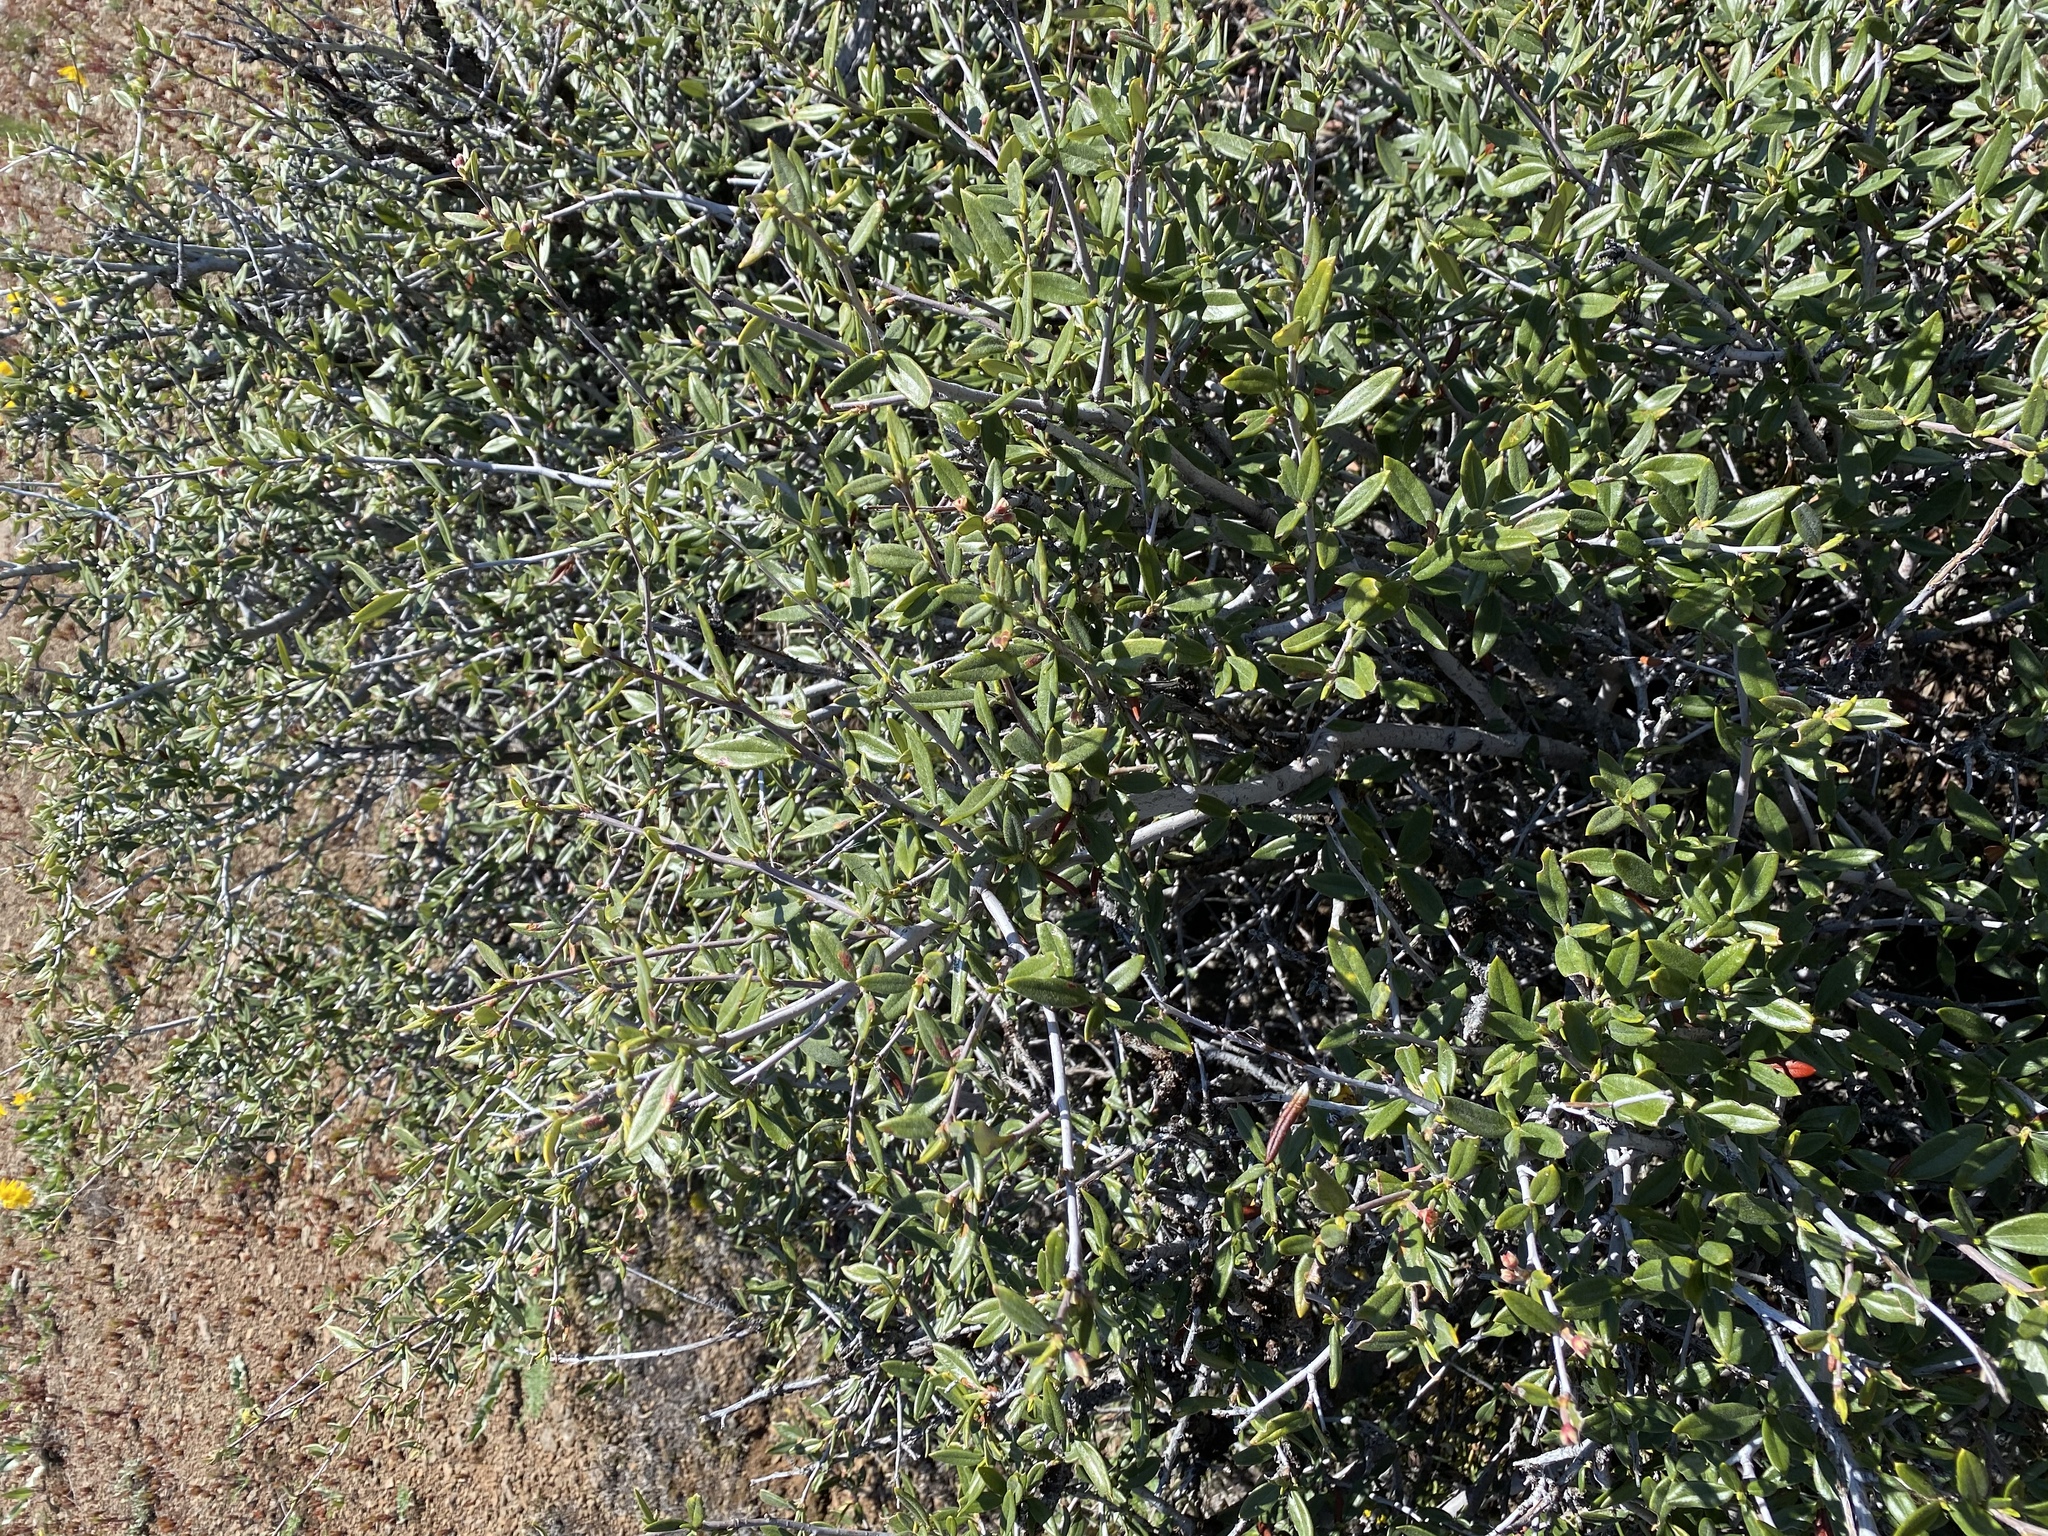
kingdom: Plantae
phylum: Tracheophyta
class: Magnoliopsida
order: Rosales
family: Rosaceae
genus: Cercocarpus
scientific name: Cercocarpus ledifolius
